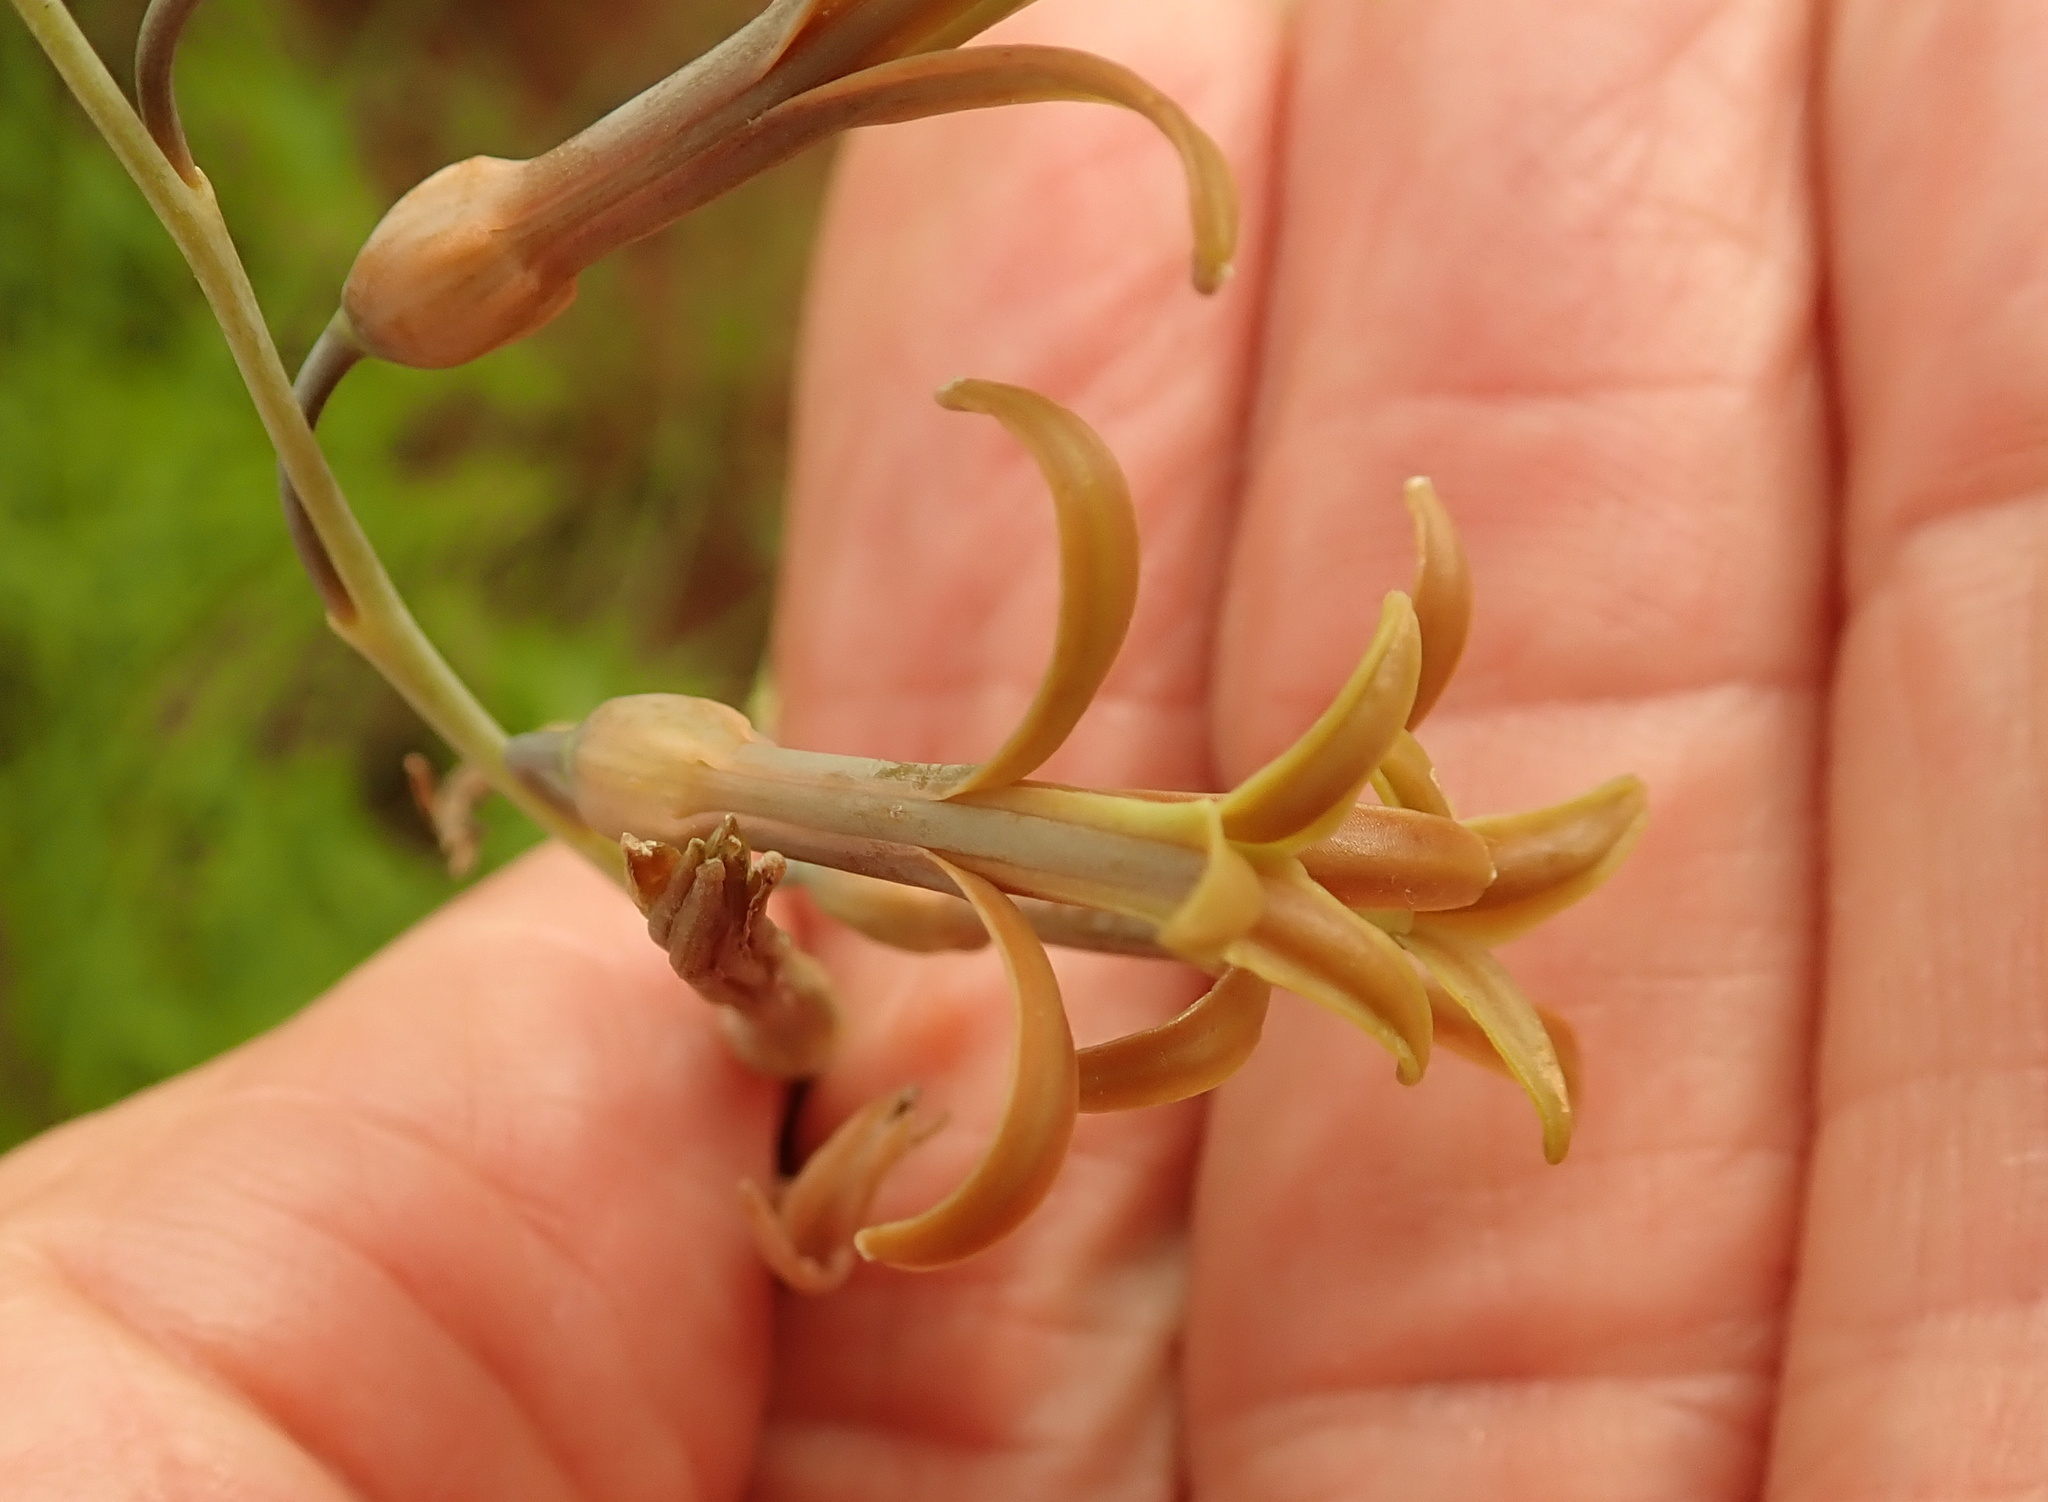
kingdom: Plantae
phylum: Tracheophyta
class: Liliopsida
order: Asparagales
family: Asparagaceae
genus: Dipcadi
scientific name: Dipcadi marlothii
